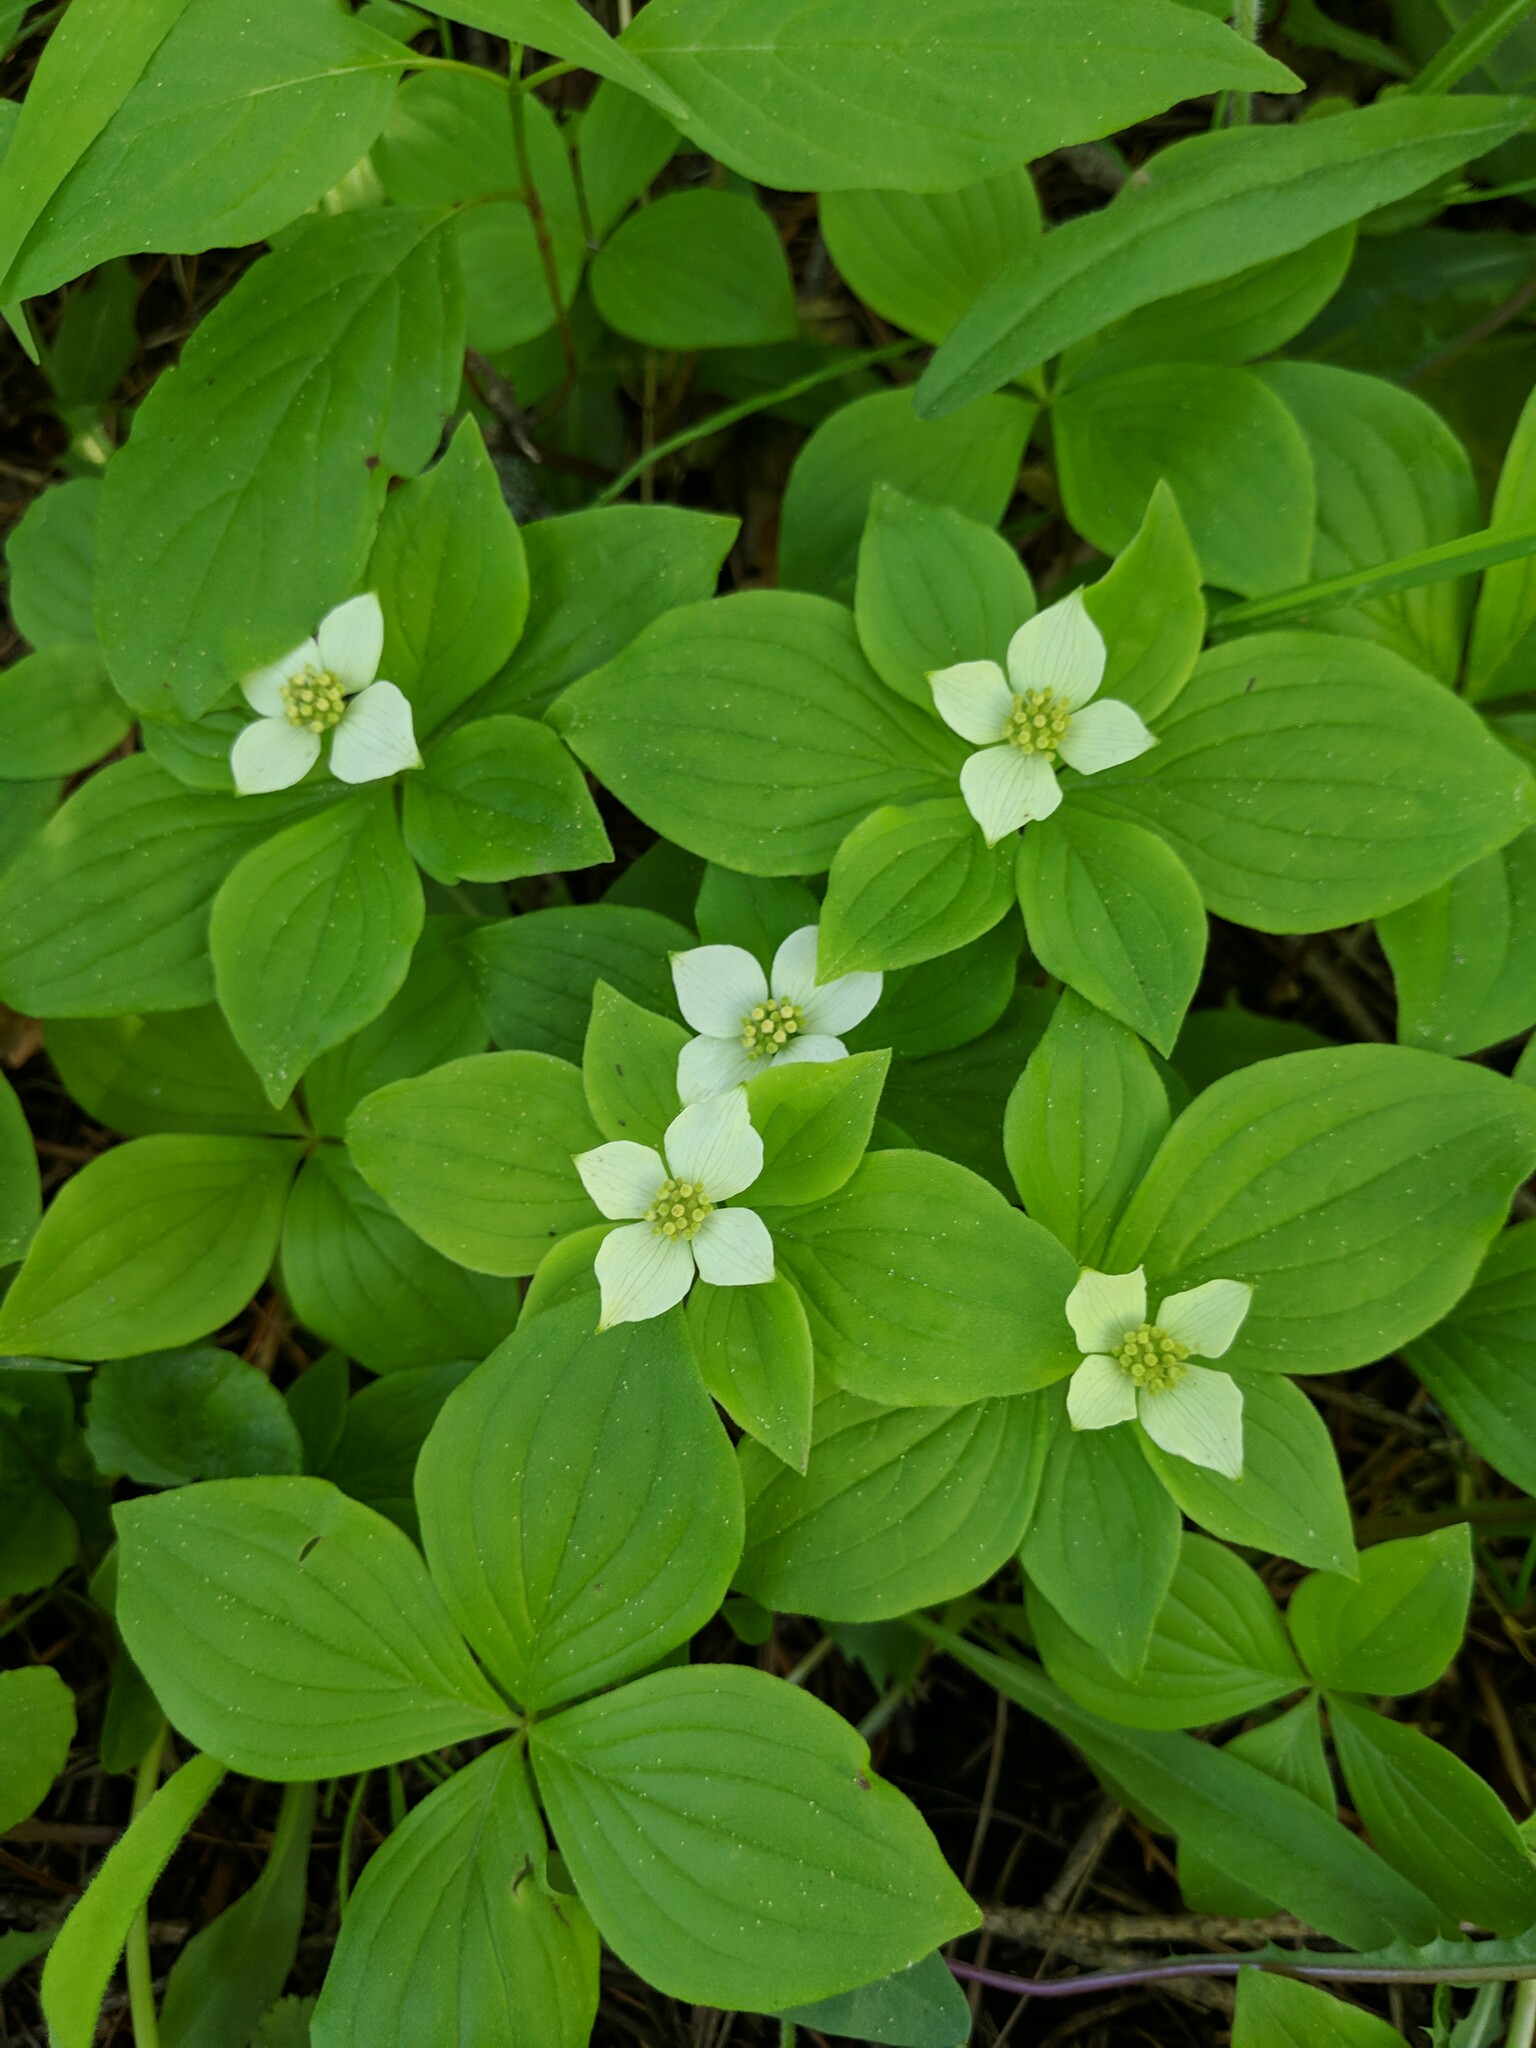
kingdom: Plantae
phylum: Tracheophyta
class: Magnoliopsida
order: Cornales
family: Cornaceae
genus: Cornus
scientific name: Cornus canadensis
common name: Creeping dogwood
